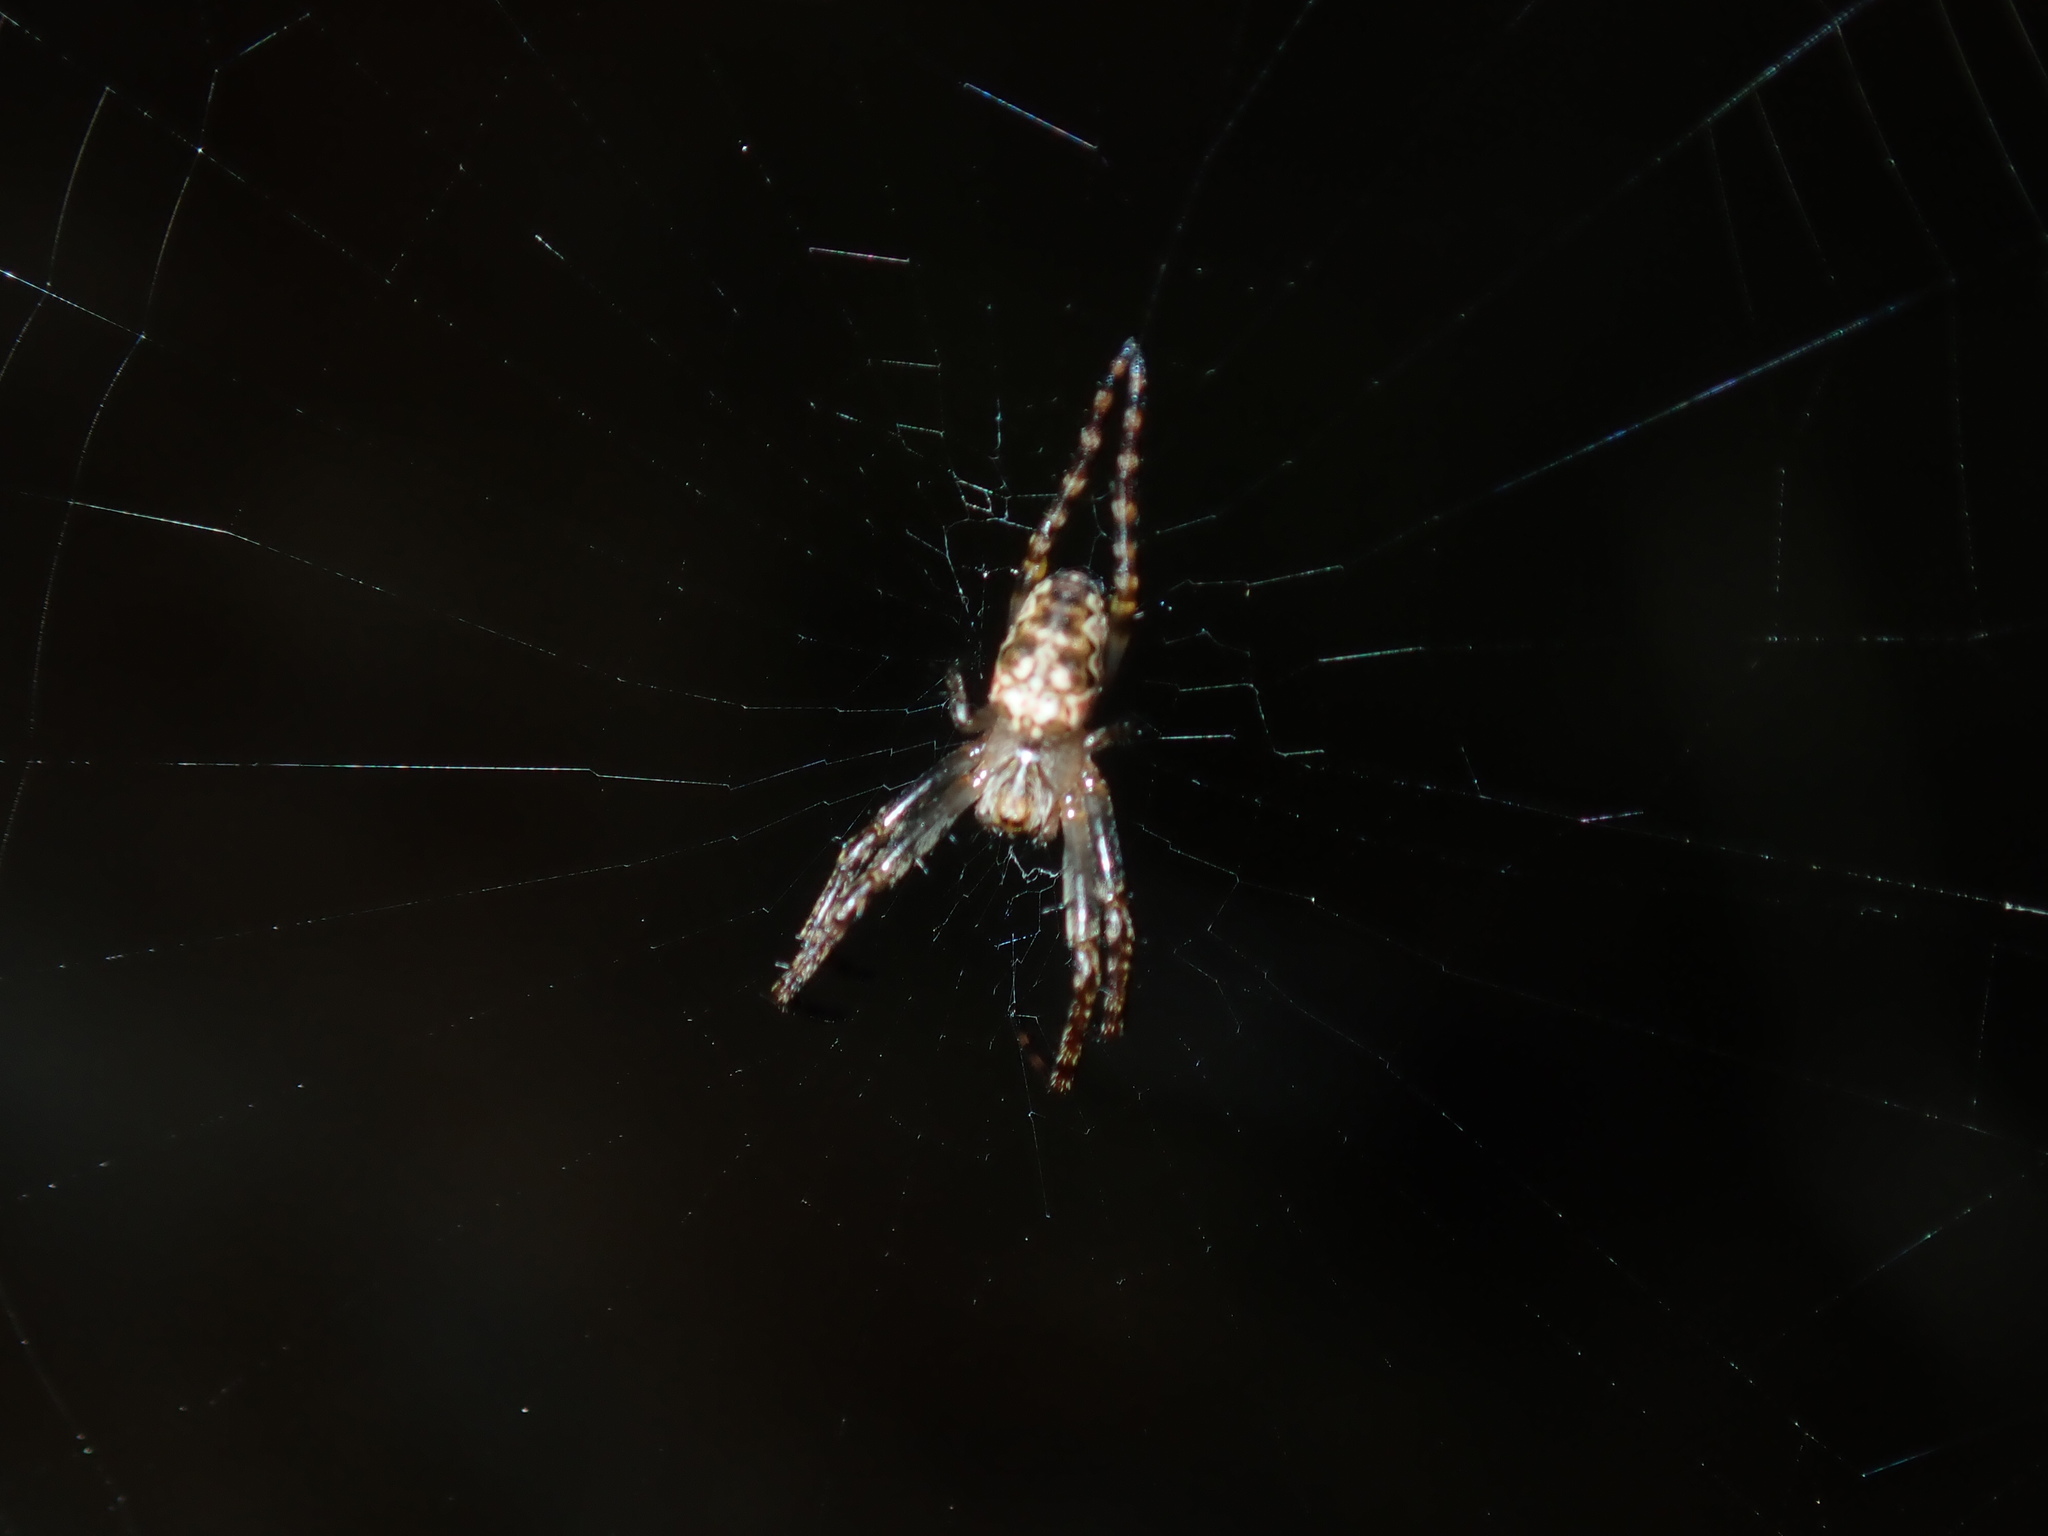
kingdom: Animalia
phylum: Arthropoda
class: Arachnida
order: Araneae
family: Araneidae
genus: Plebs
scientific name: Plebs eburnus
